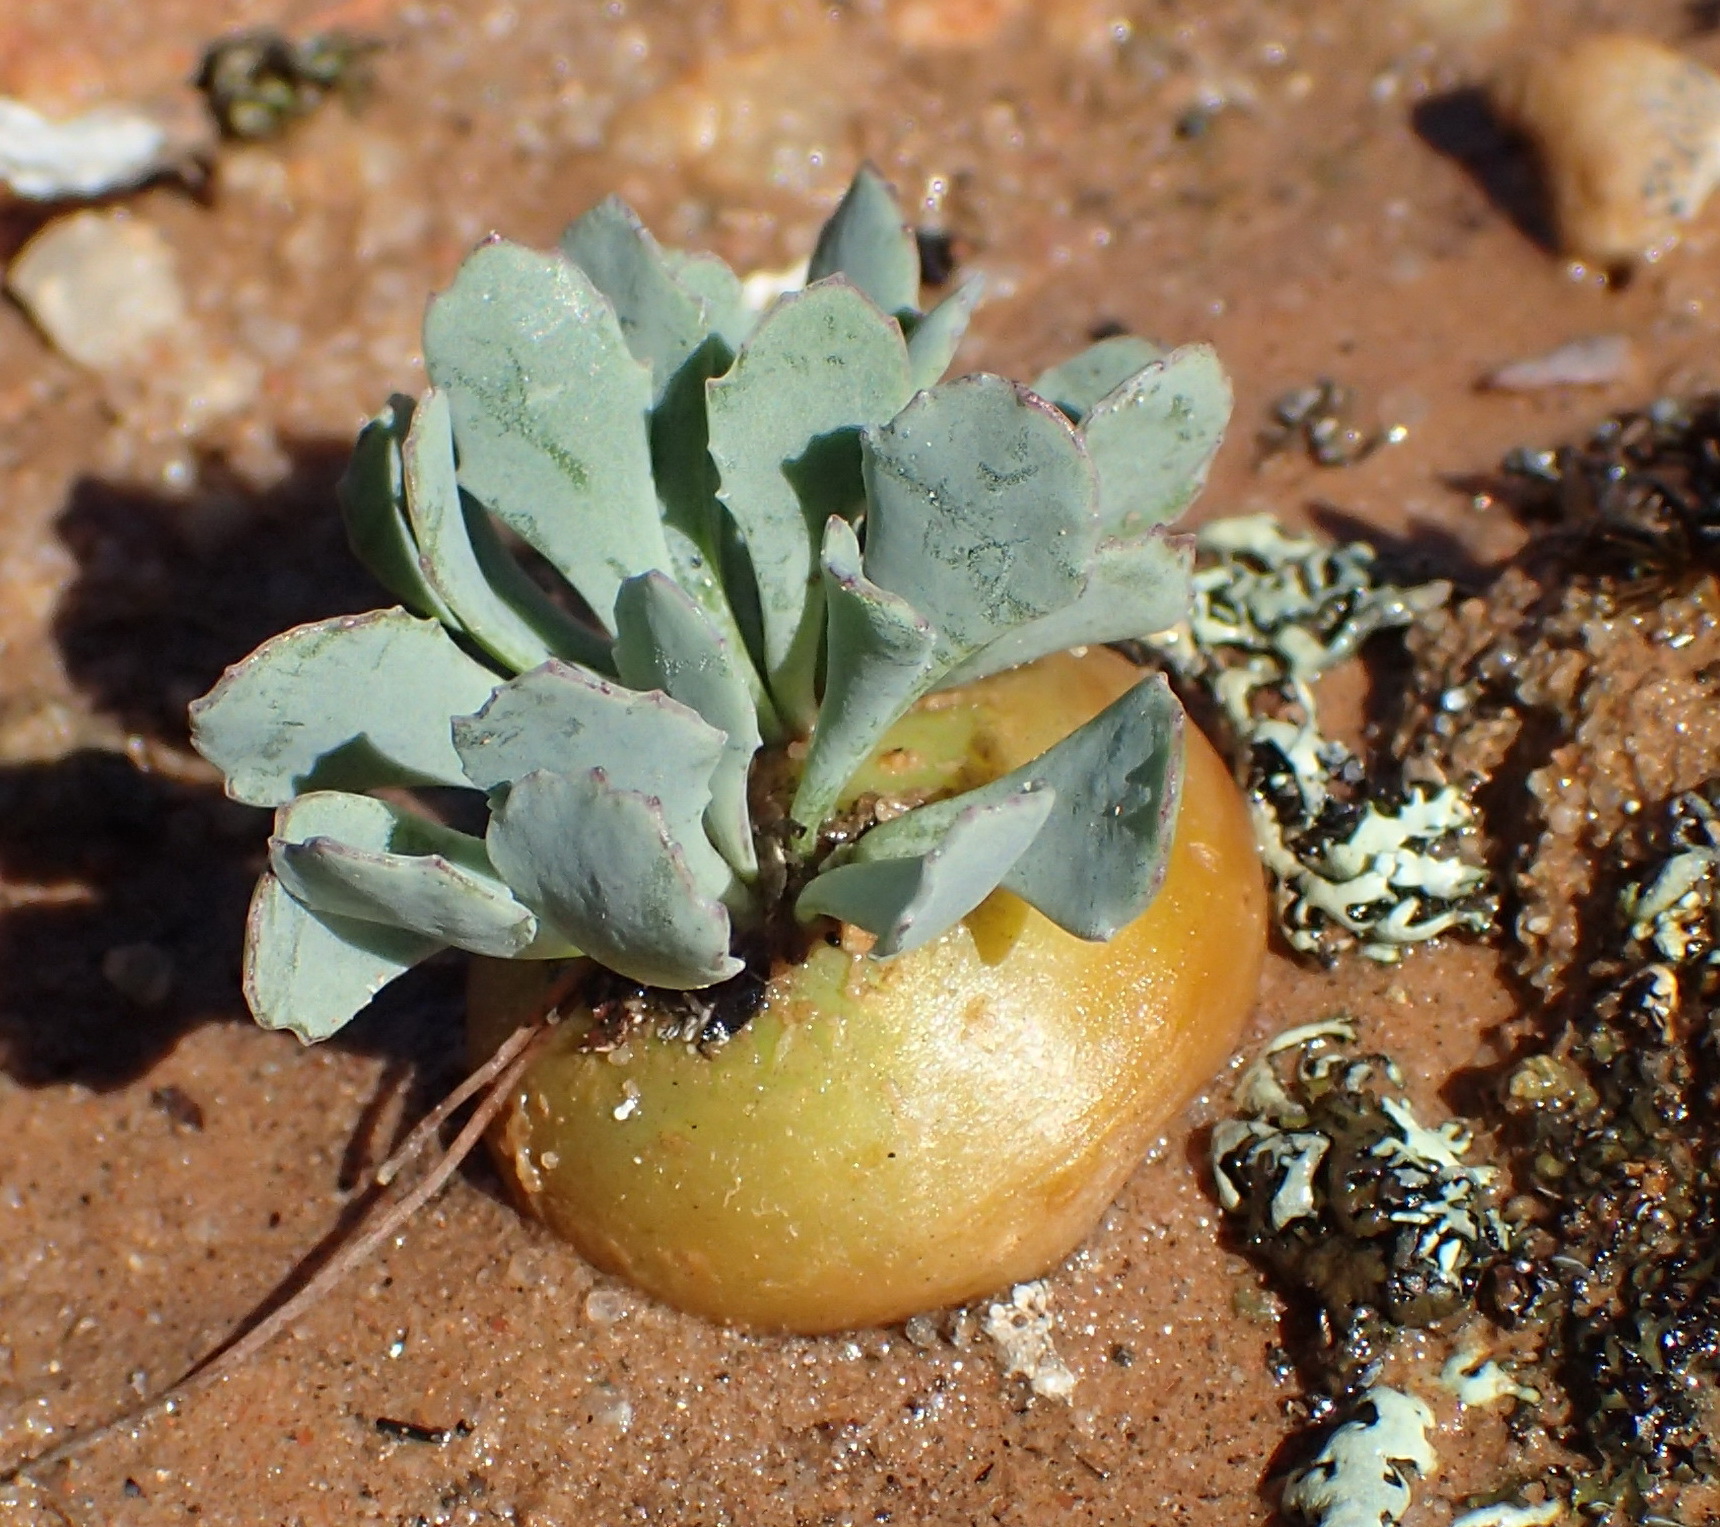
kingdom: Plantae
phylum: Tracheophyta
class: Magnoliopsida
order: Asterales
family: Asteraceae
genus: Crassothonna
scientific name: Crassothonna cacalioides
